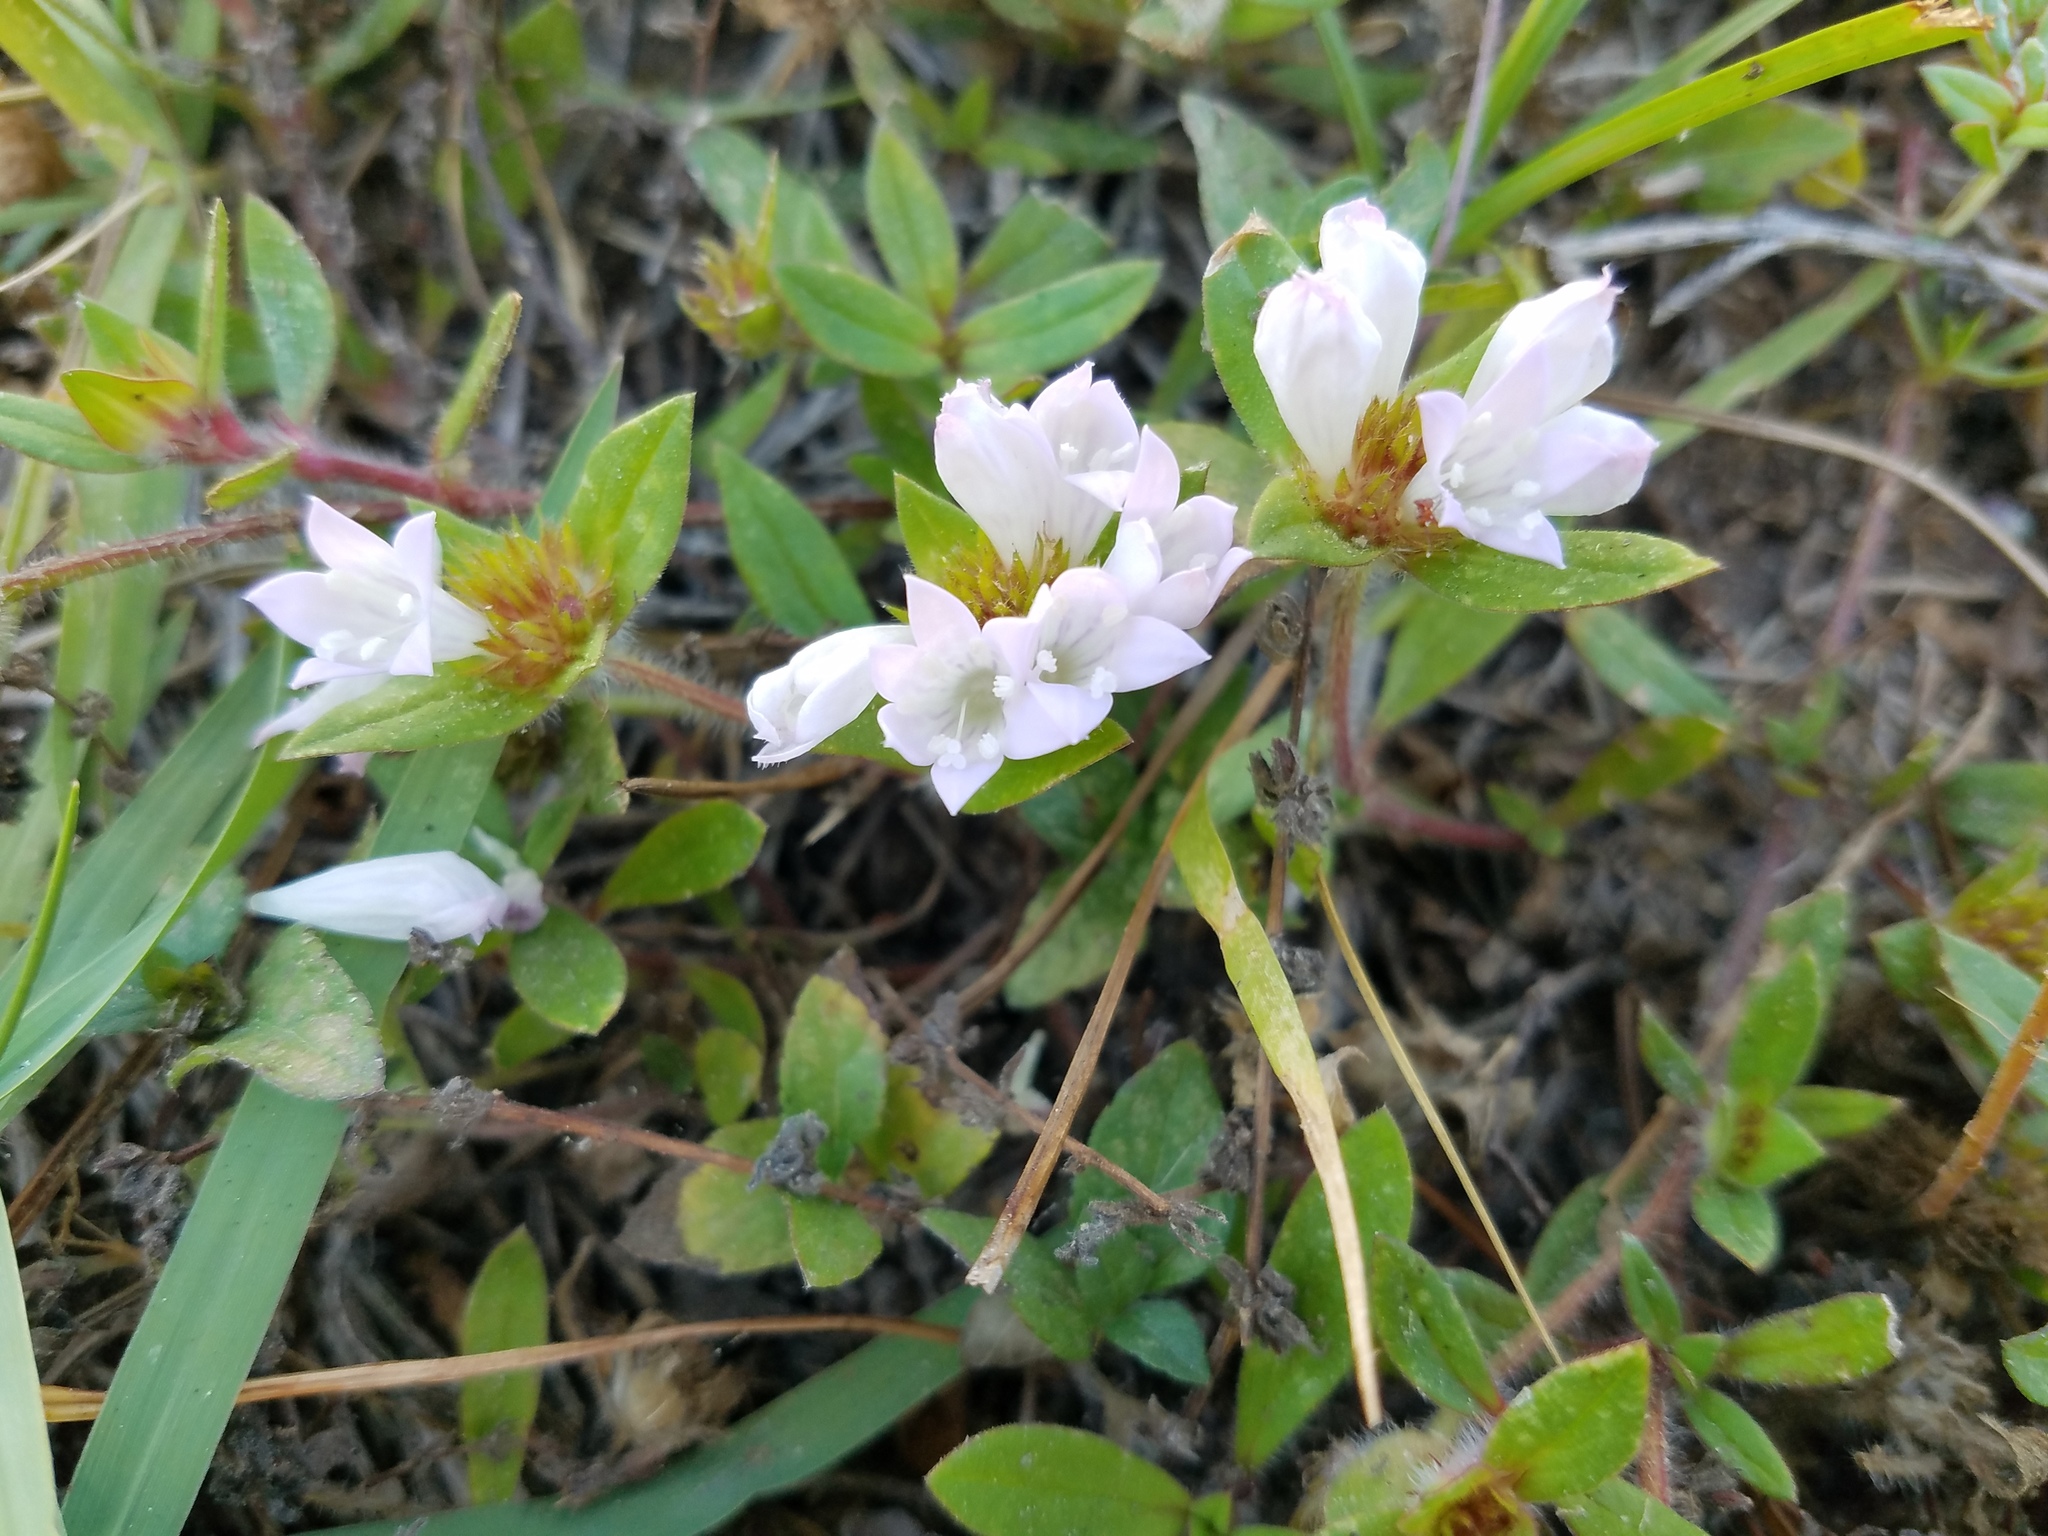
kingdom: Plantae
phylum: Tracheophyta
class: Magnoliopsida
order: Gentianales
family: Rubiaceae
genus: Richardia
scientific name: Richardia grandiflora
